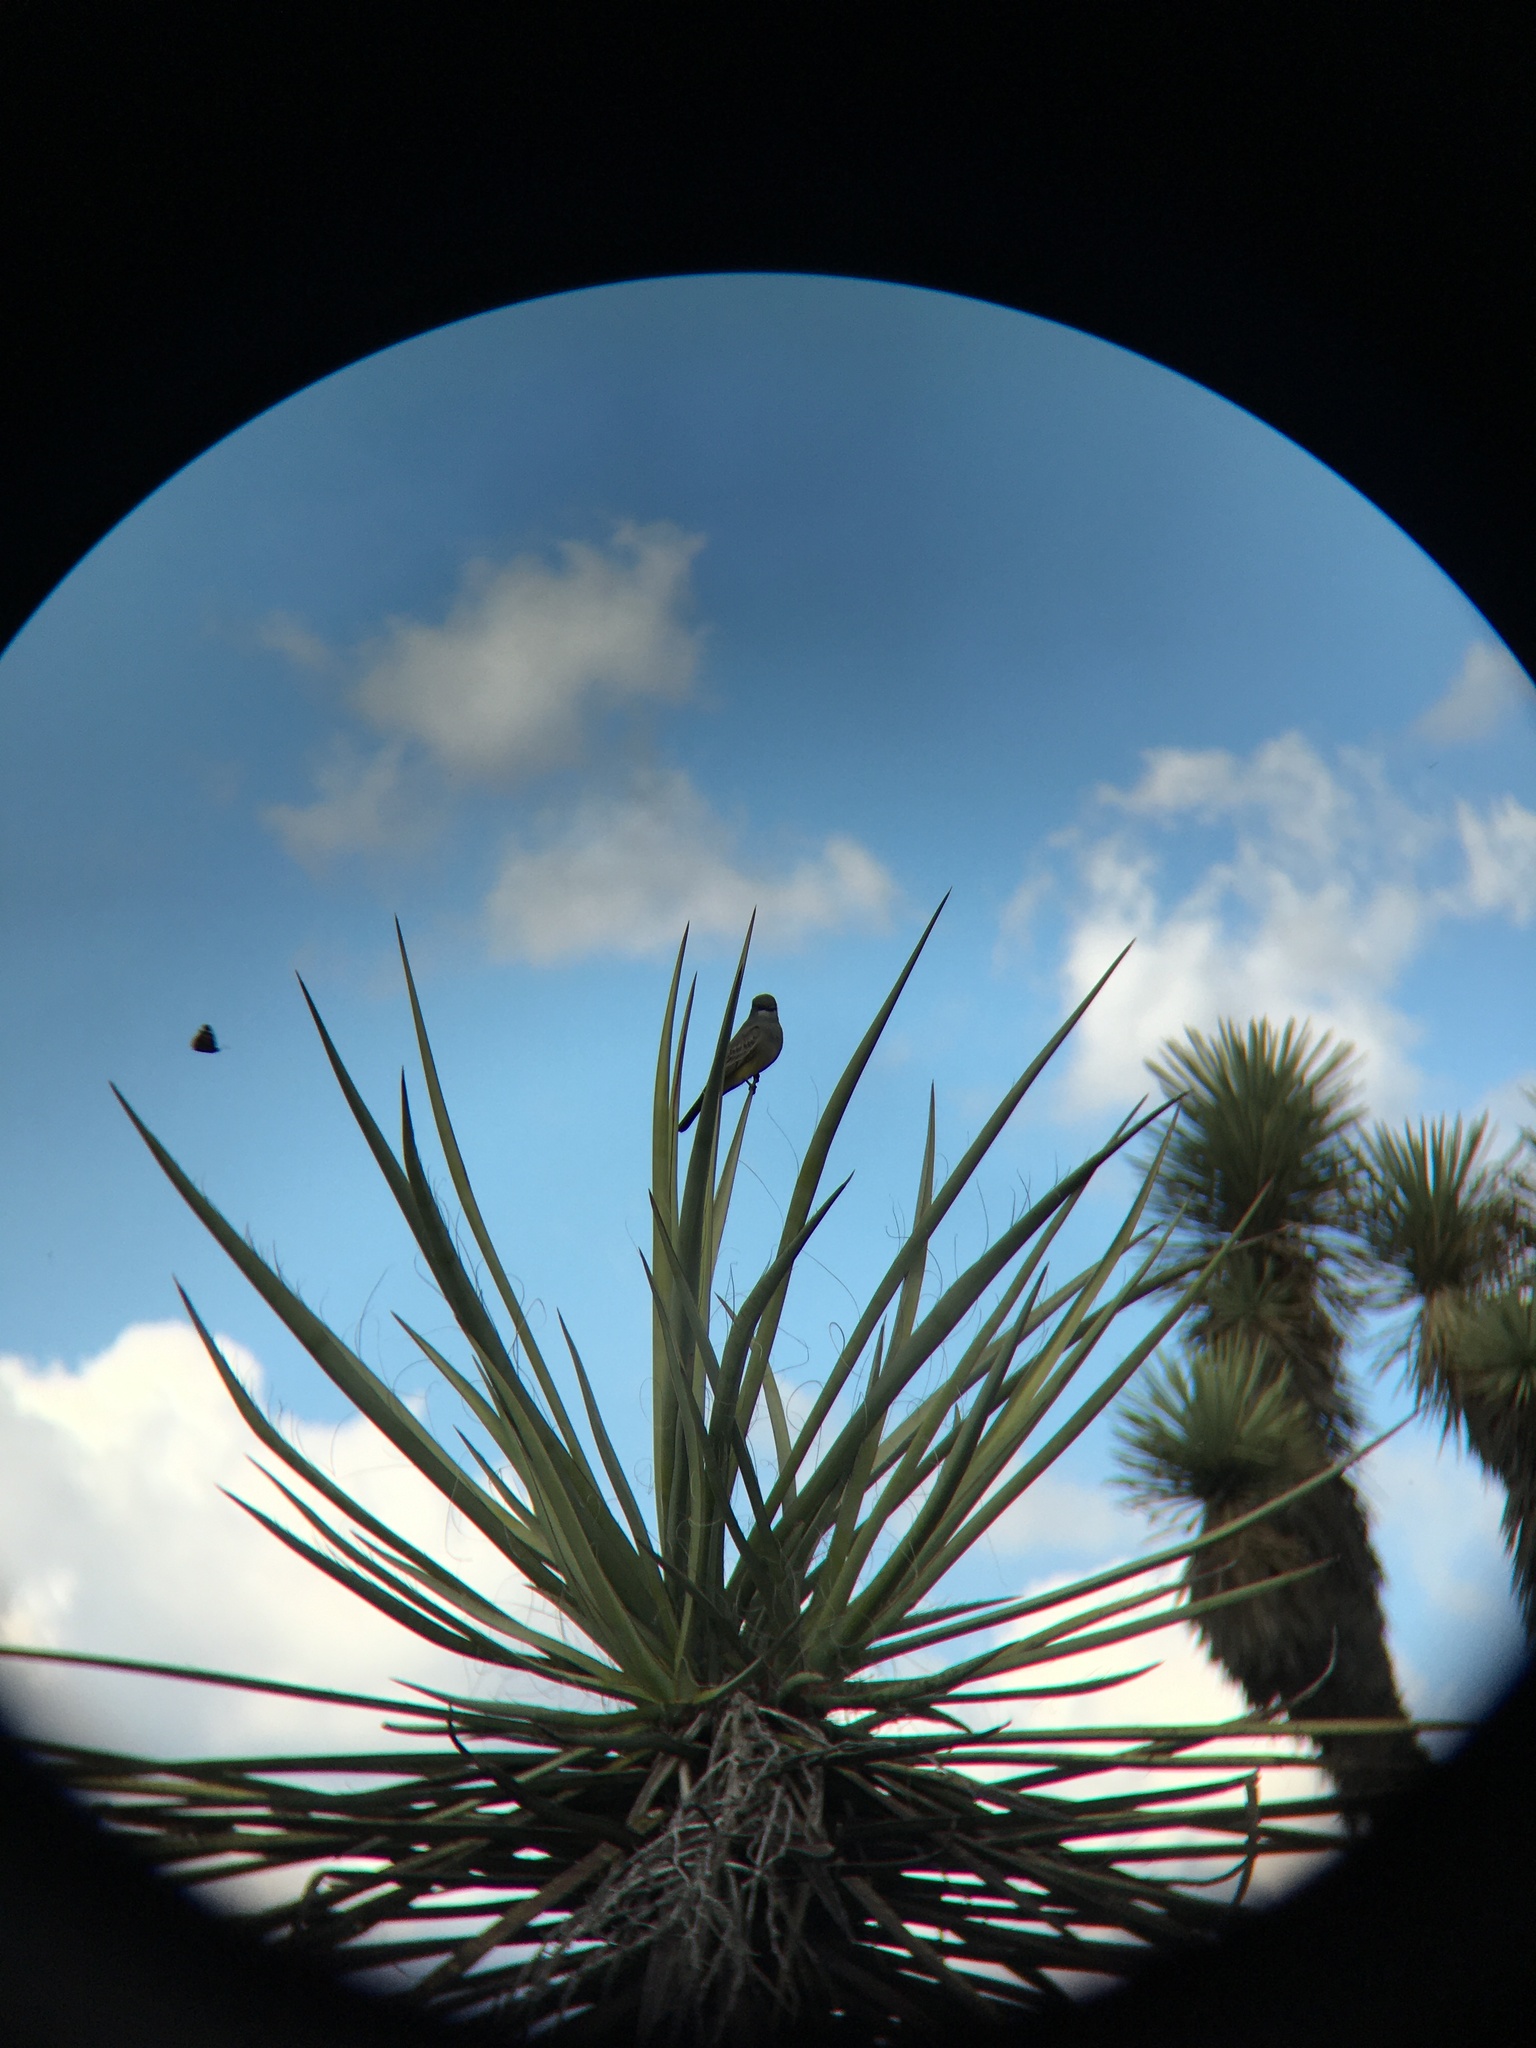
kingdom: Animalia
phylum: Chordata
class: Aves
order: Passeriformes
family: Tyrannidae
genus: Tyrannus
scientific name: Tyrannus vociferans
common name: Cassin's kingbird
